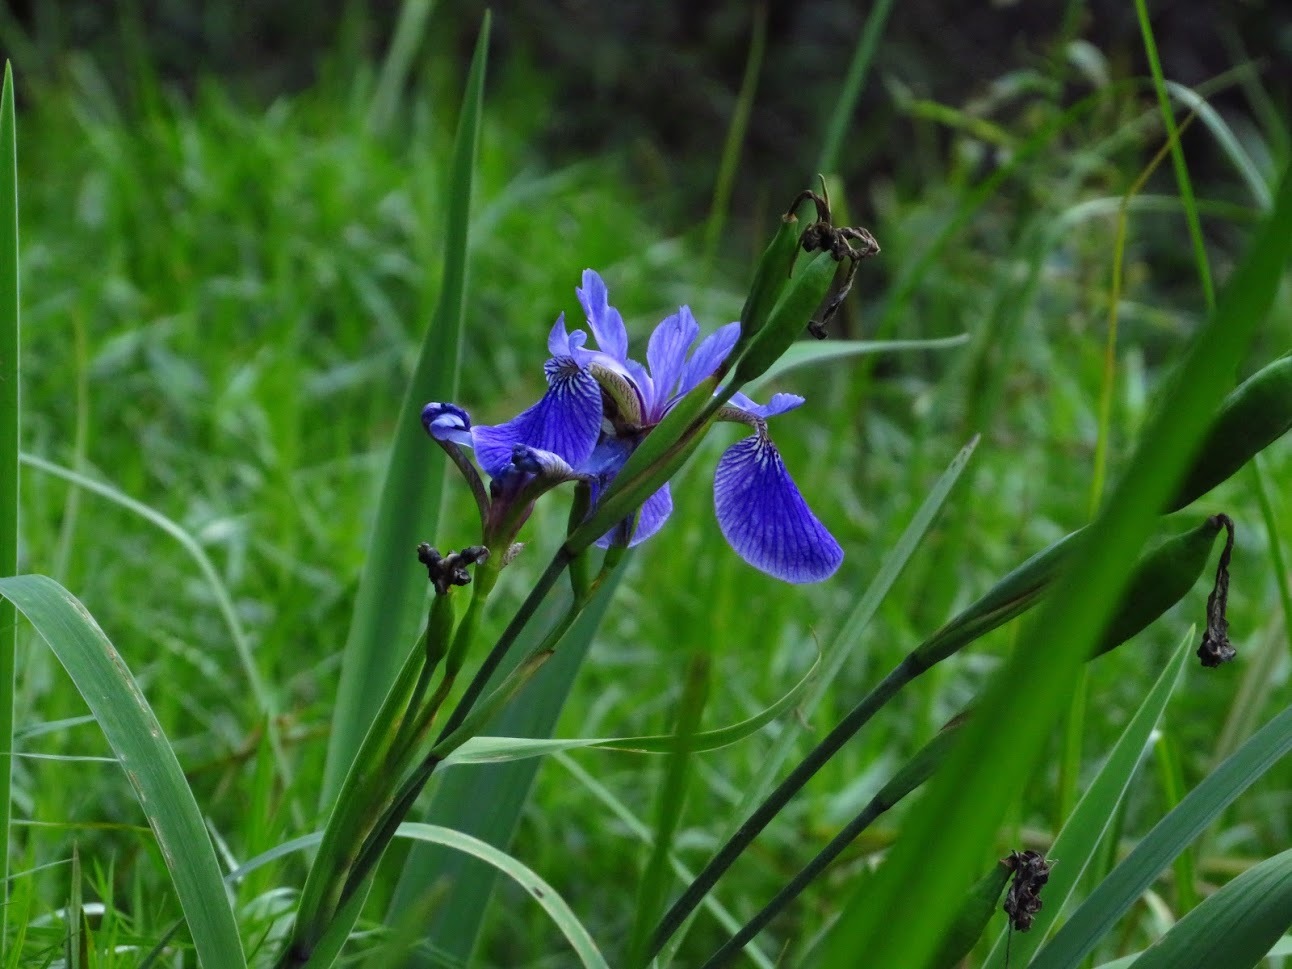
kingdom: Plantae
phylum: Tracheophyta
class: Liliopsida
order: Asparagales
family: Iridaceae
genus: Iris
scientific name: Iris sanguinea
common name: Blood iris
